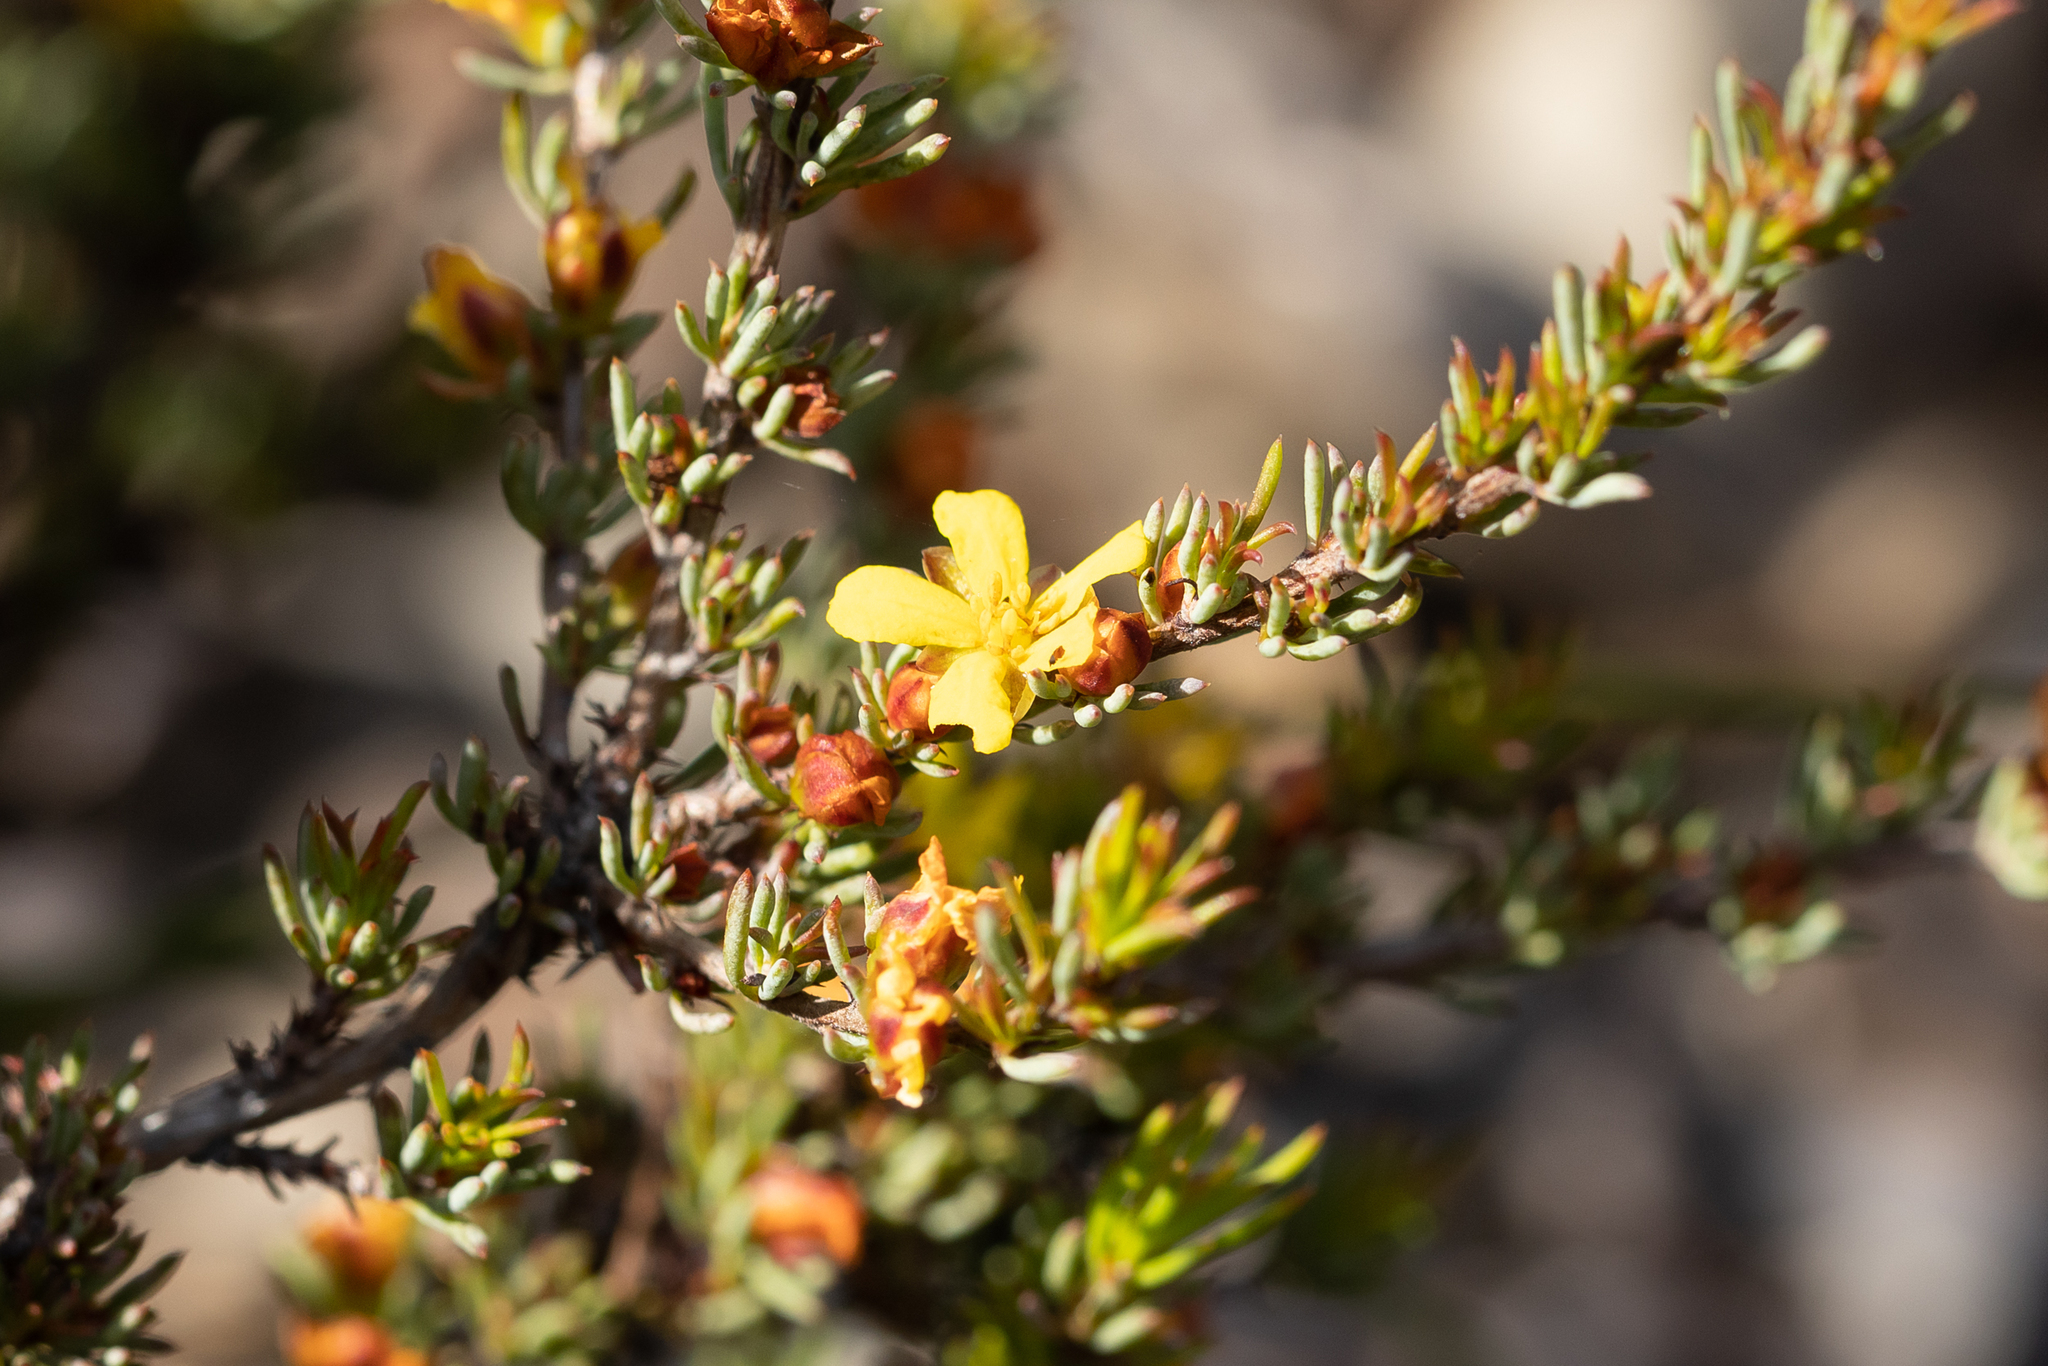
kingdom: Plantae
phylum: Tracheophyta
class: Magnoliopsida
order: Dilleniales
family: Dilleniaceae
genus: Hibbertia
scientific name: Hibbertia hemignosta
